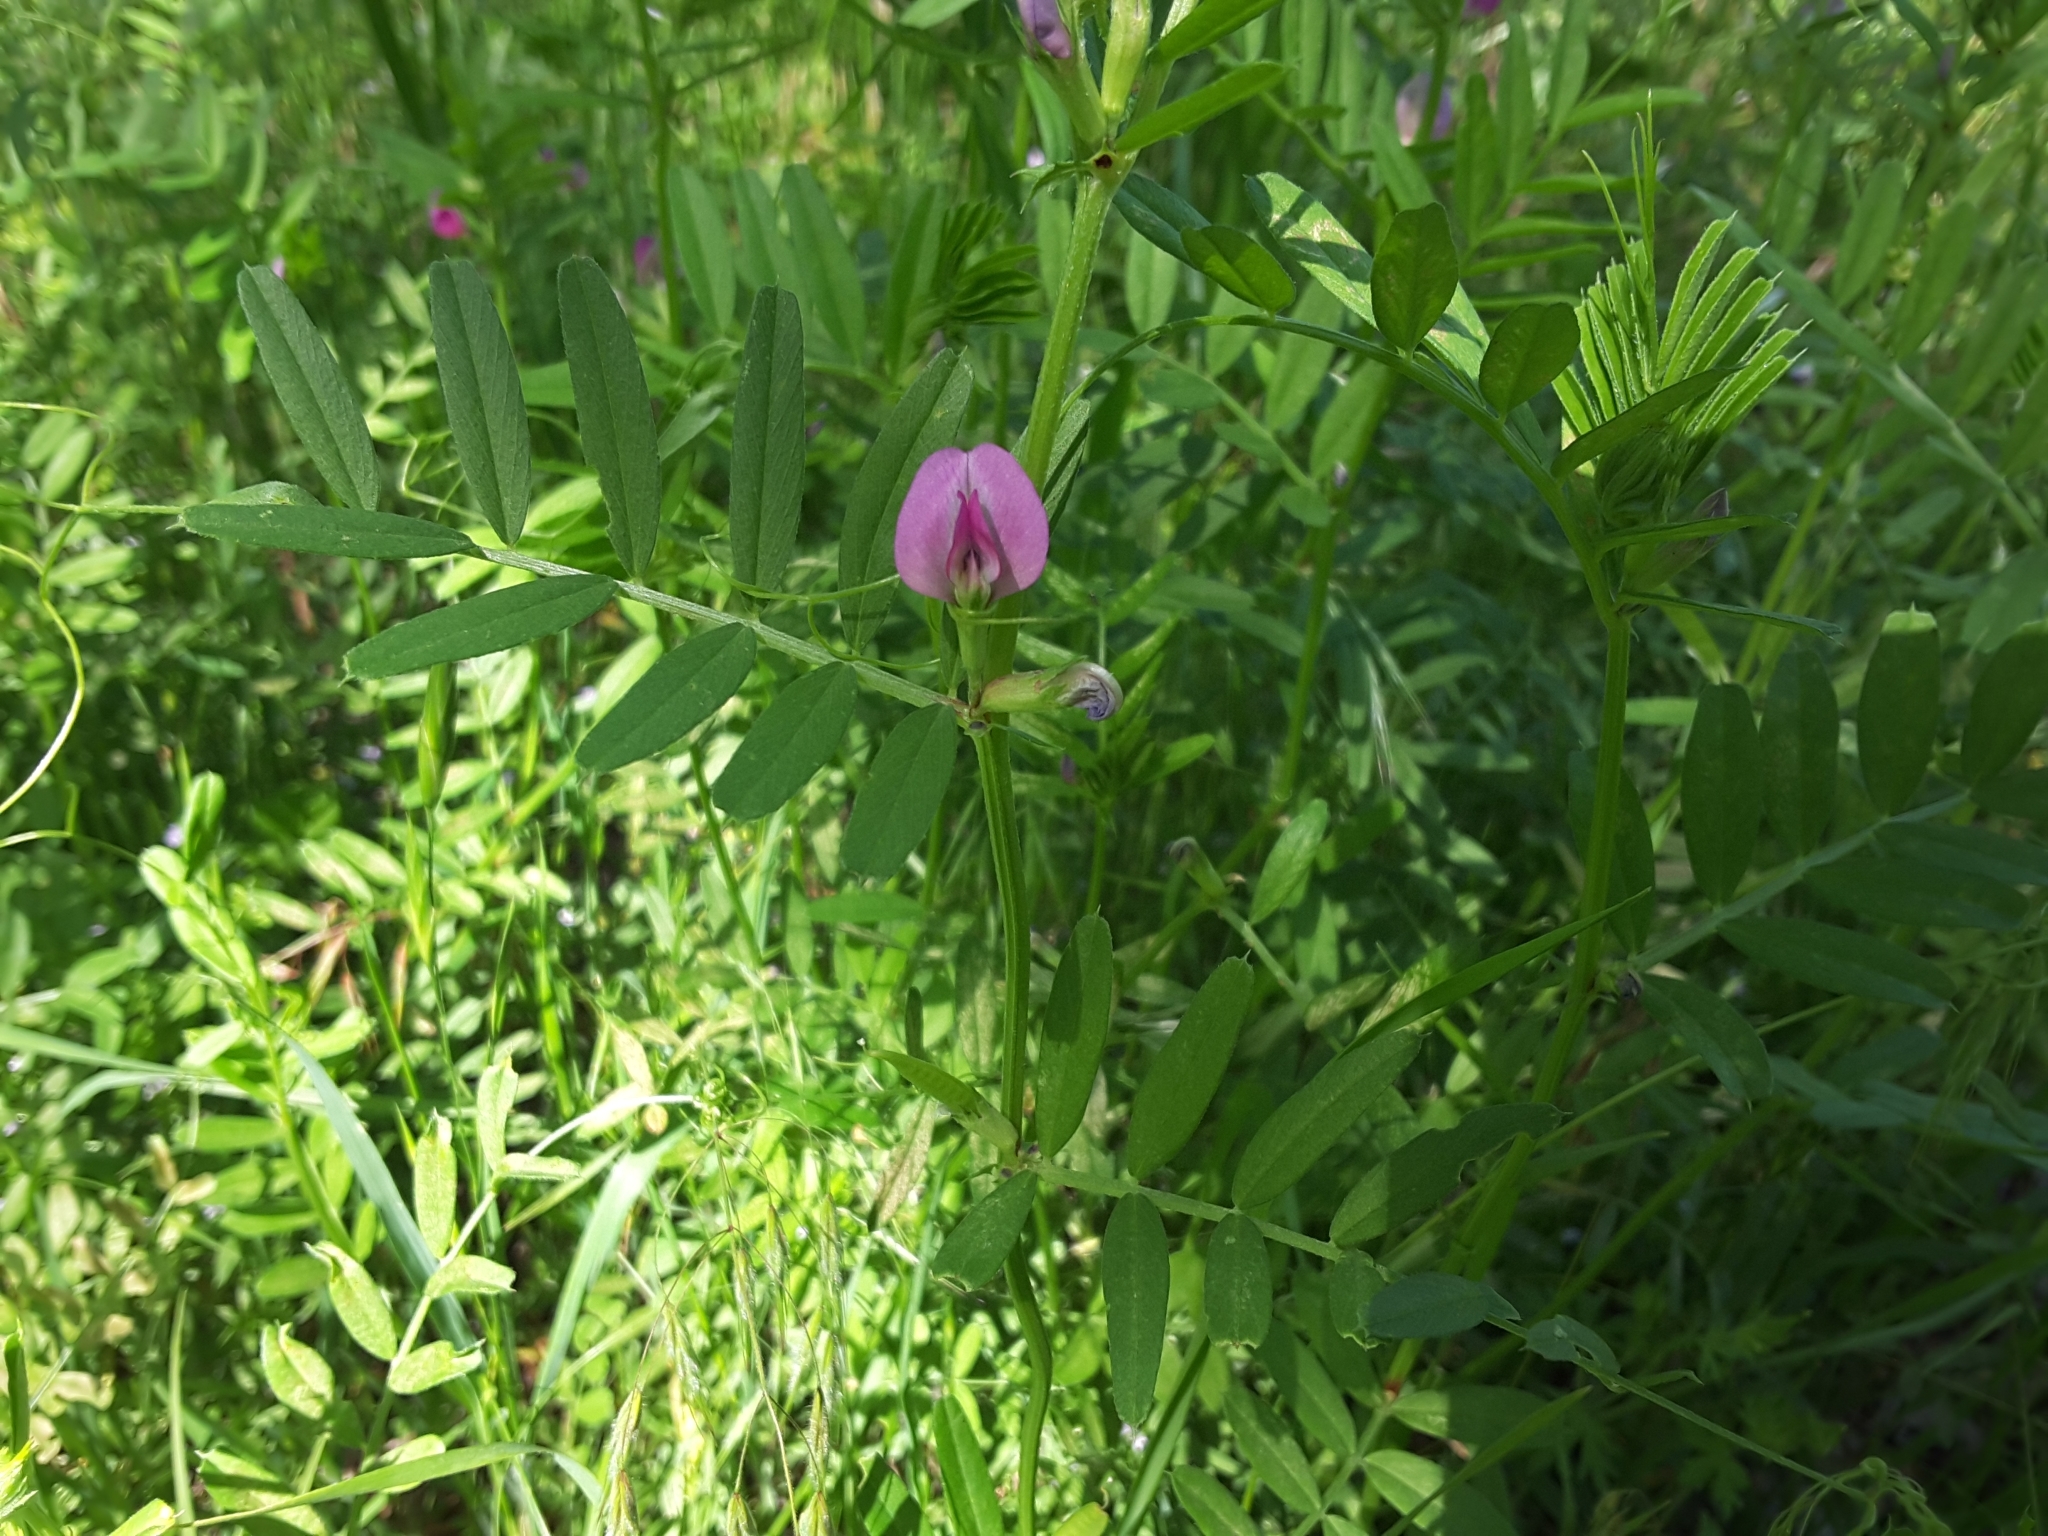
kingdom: Plantae
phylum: Tracheophyta
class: Magnoliopsida
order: Fabales
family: Fabaceae
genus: Vicia
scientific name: Vicia sativa
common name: Garden vetch
